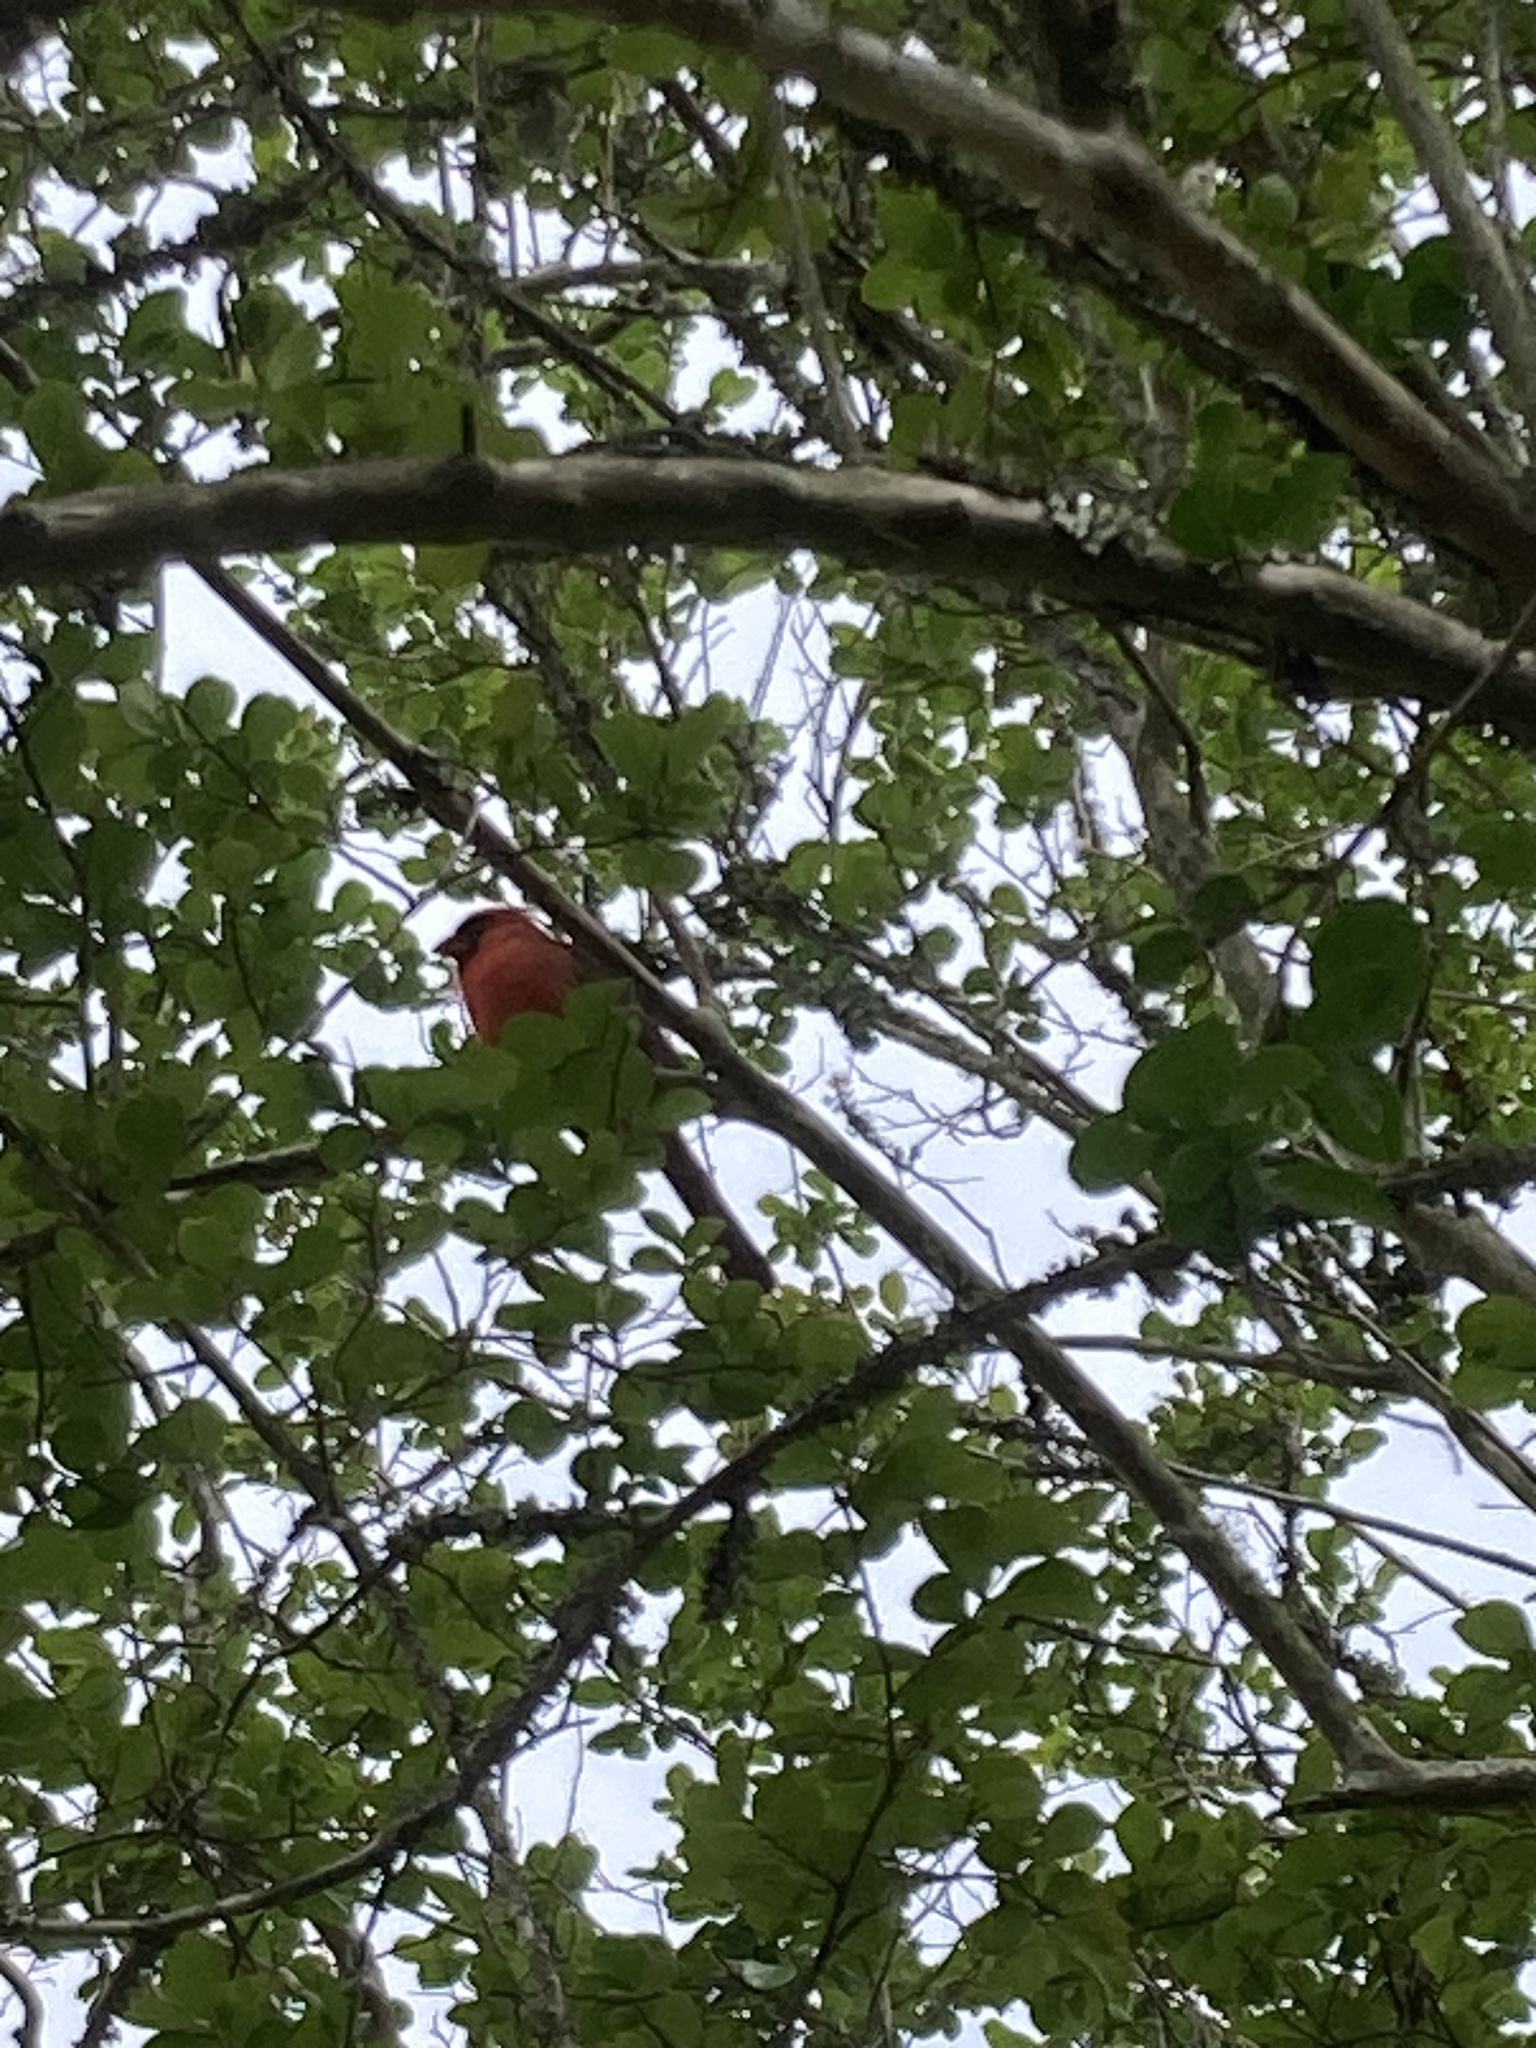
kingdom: Animalia
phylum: Chordata
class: Aves
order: Passeriformes
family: Cardinalidae
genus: Cardinalis
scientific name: Cardinalis cardinalis
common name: Northern cardinal
